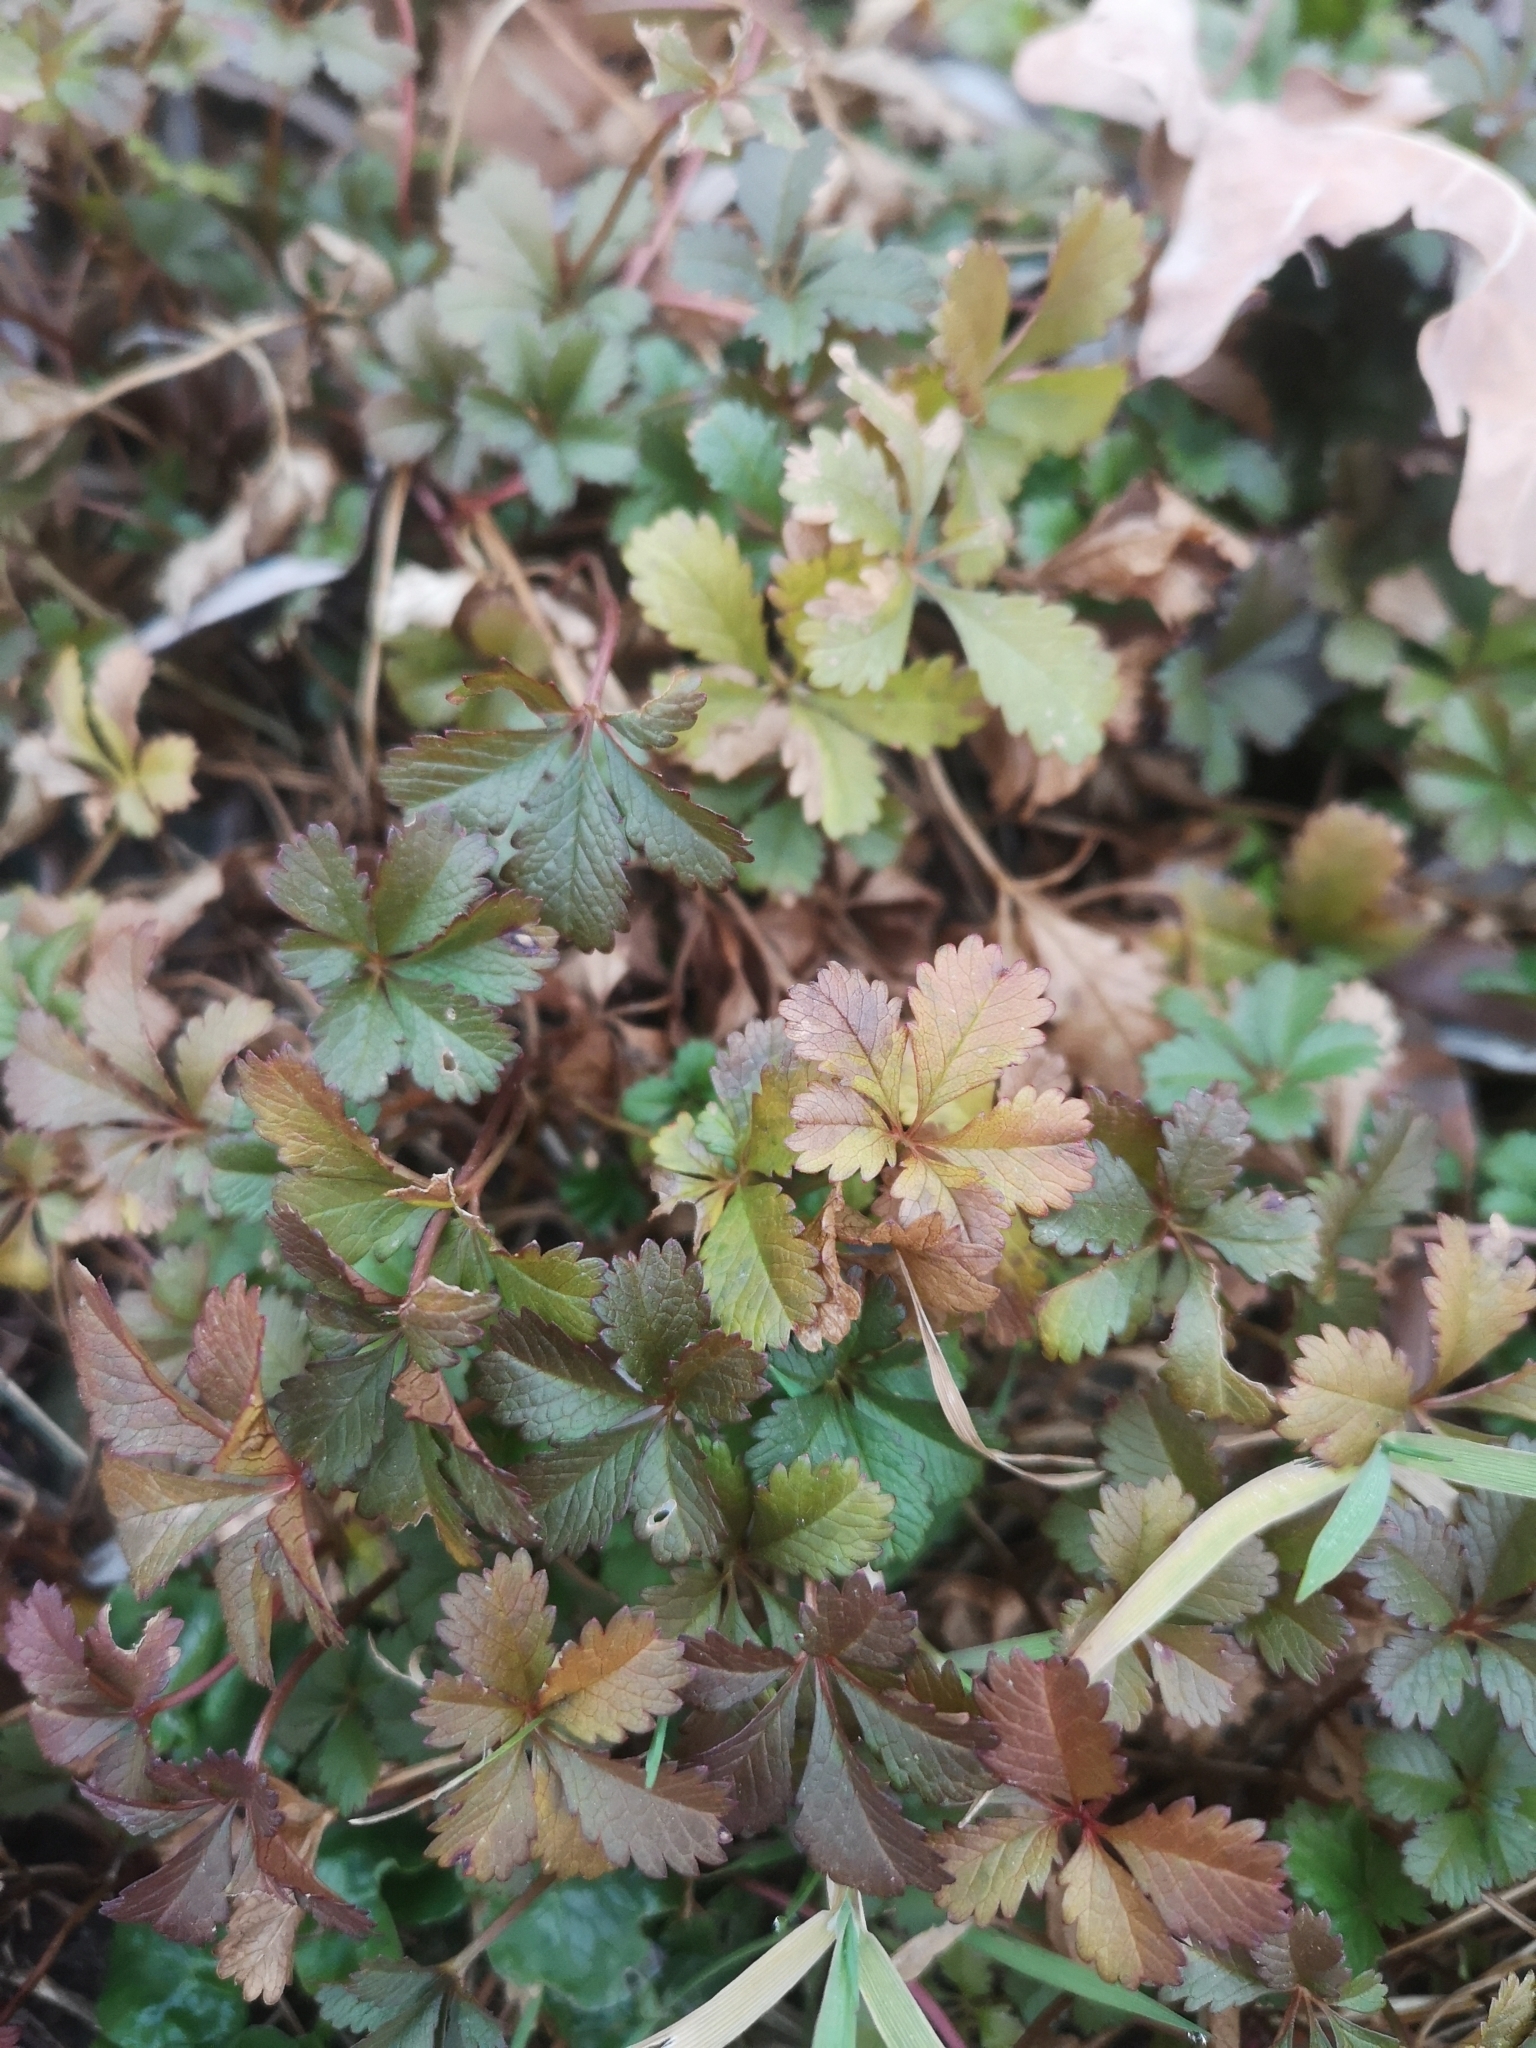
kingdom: Plantae
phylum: Tracheophyta
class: Magnoliopsida
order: Rosales
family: Rosaceae
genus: Potentilla
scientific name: Potentilla reptans
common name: Creeping cinquefoil
